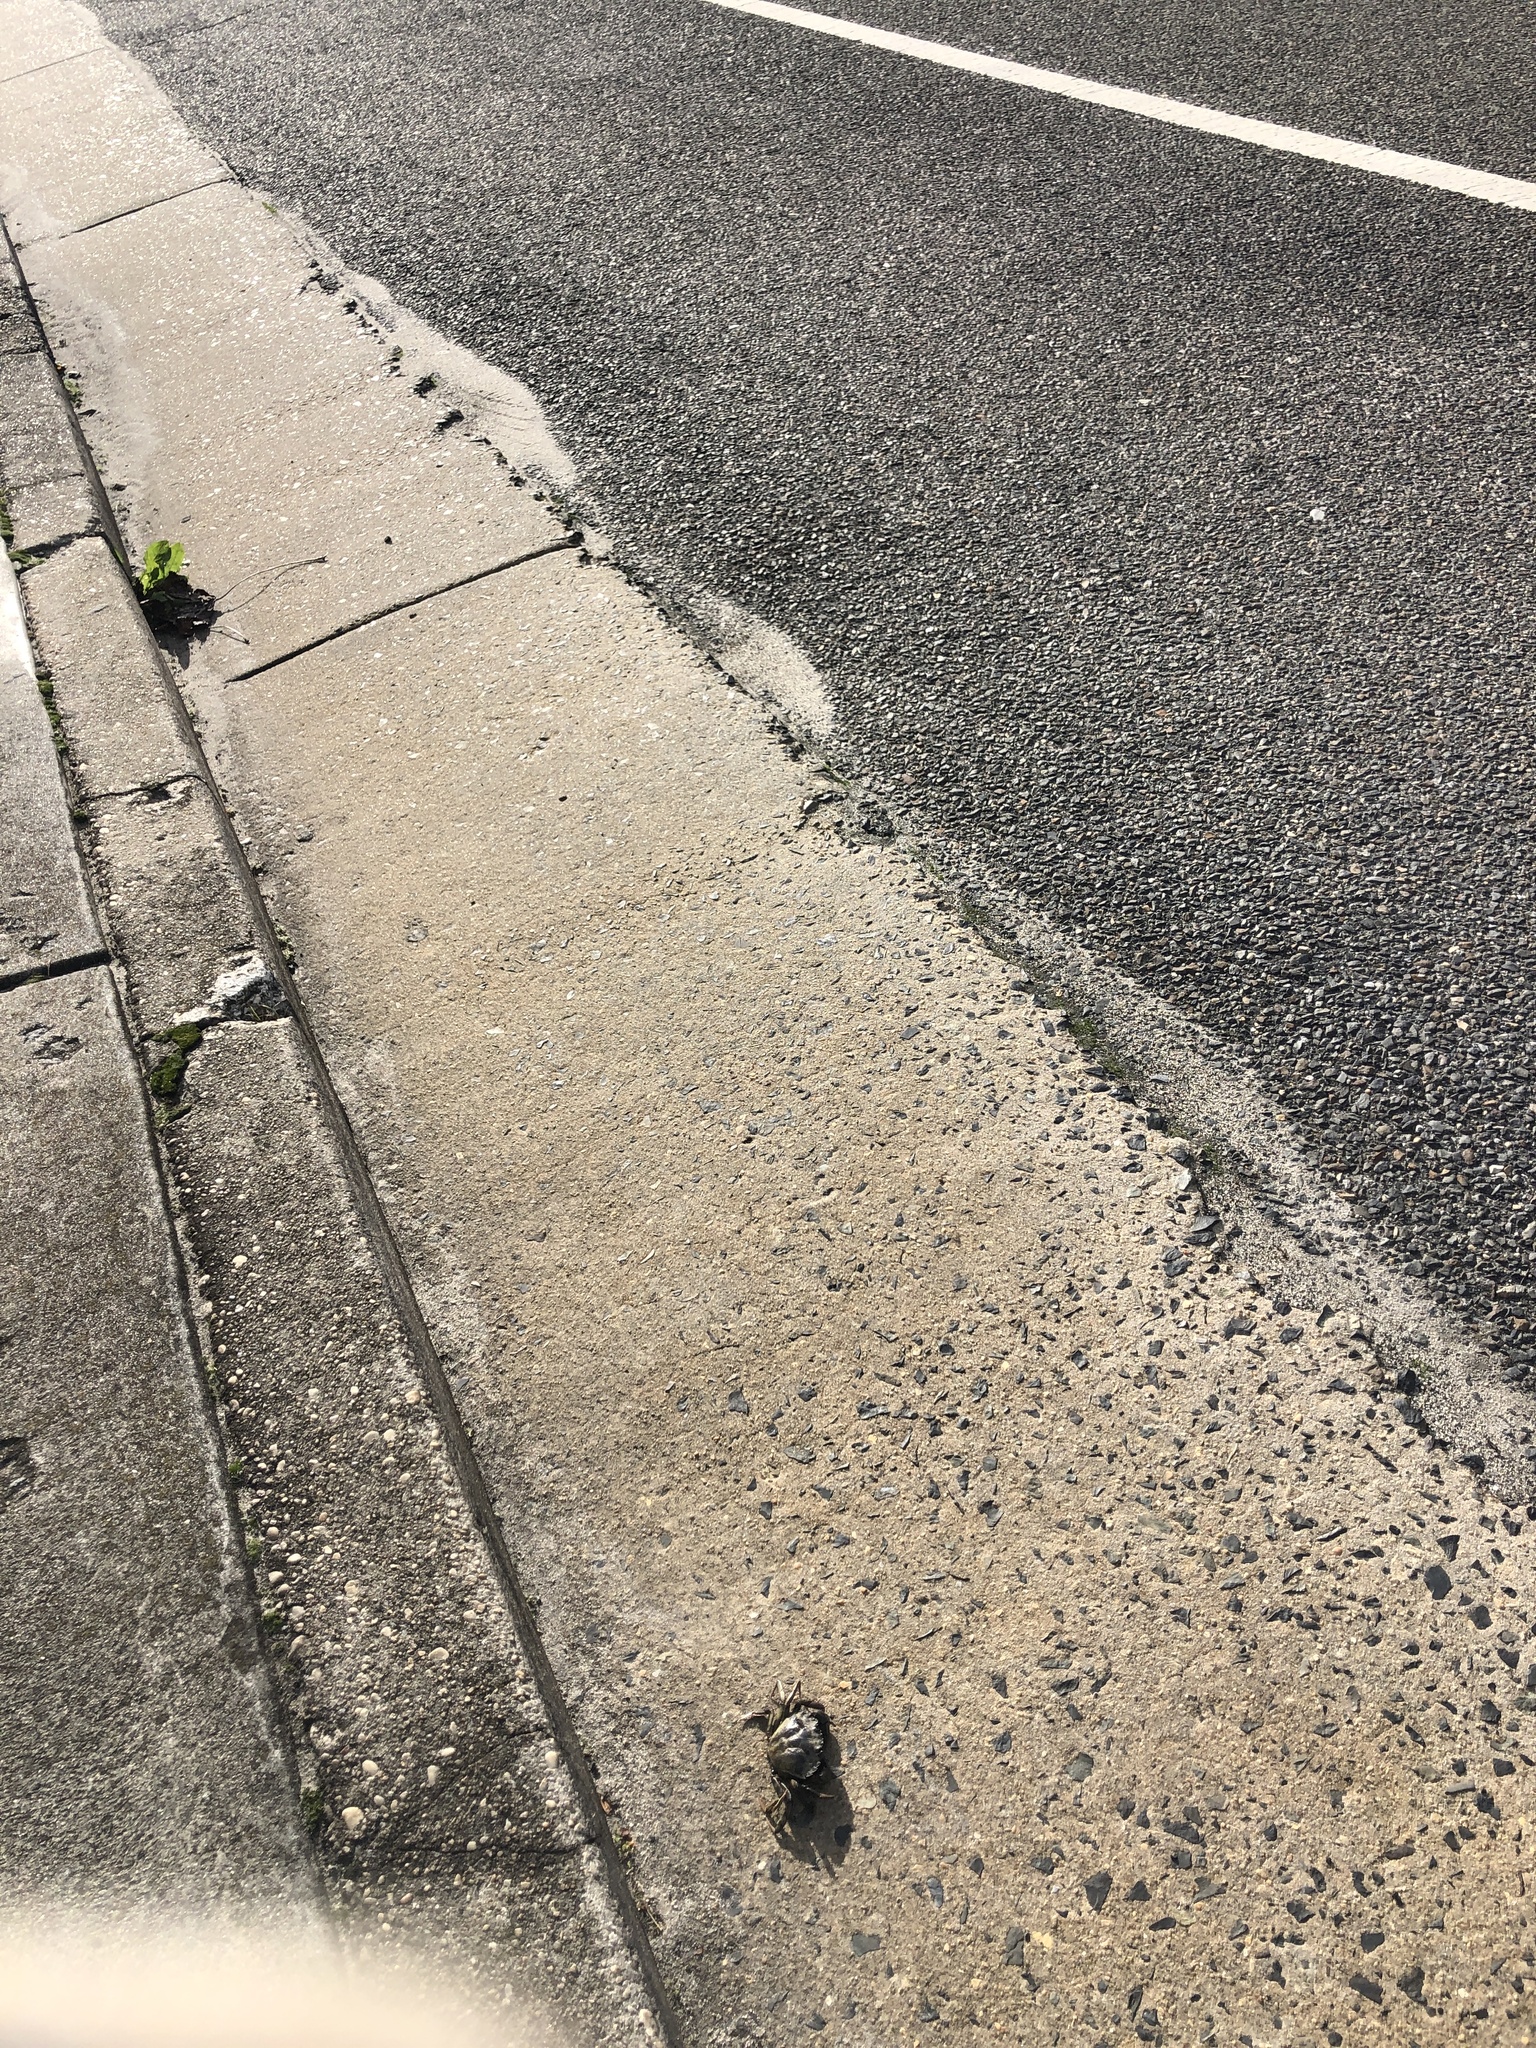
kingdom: Animalia
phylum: Arthropoda
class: Malacostraca
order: Decapoda
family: Carcinidae
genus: Carcinus
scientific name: Carcinus maenas
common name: European green crab
